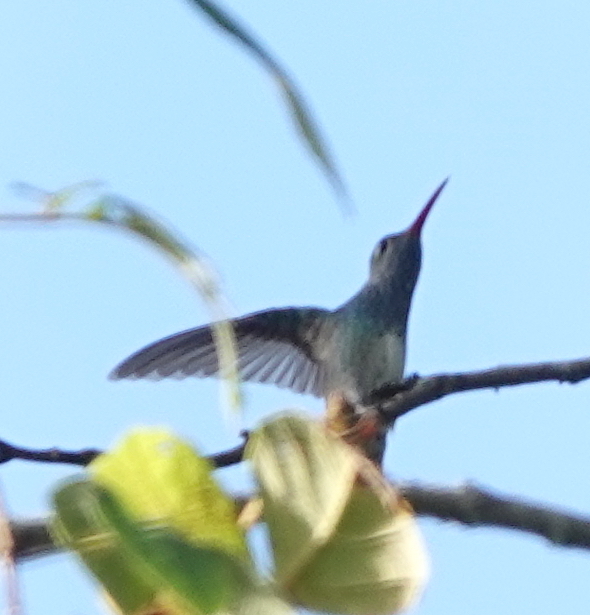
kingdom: Animalia
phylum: Chordata
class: Aves
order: Apodiformes
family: Trochilidae
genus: Amazilia
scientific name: Amazilia luciae
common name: Honduran emerald
